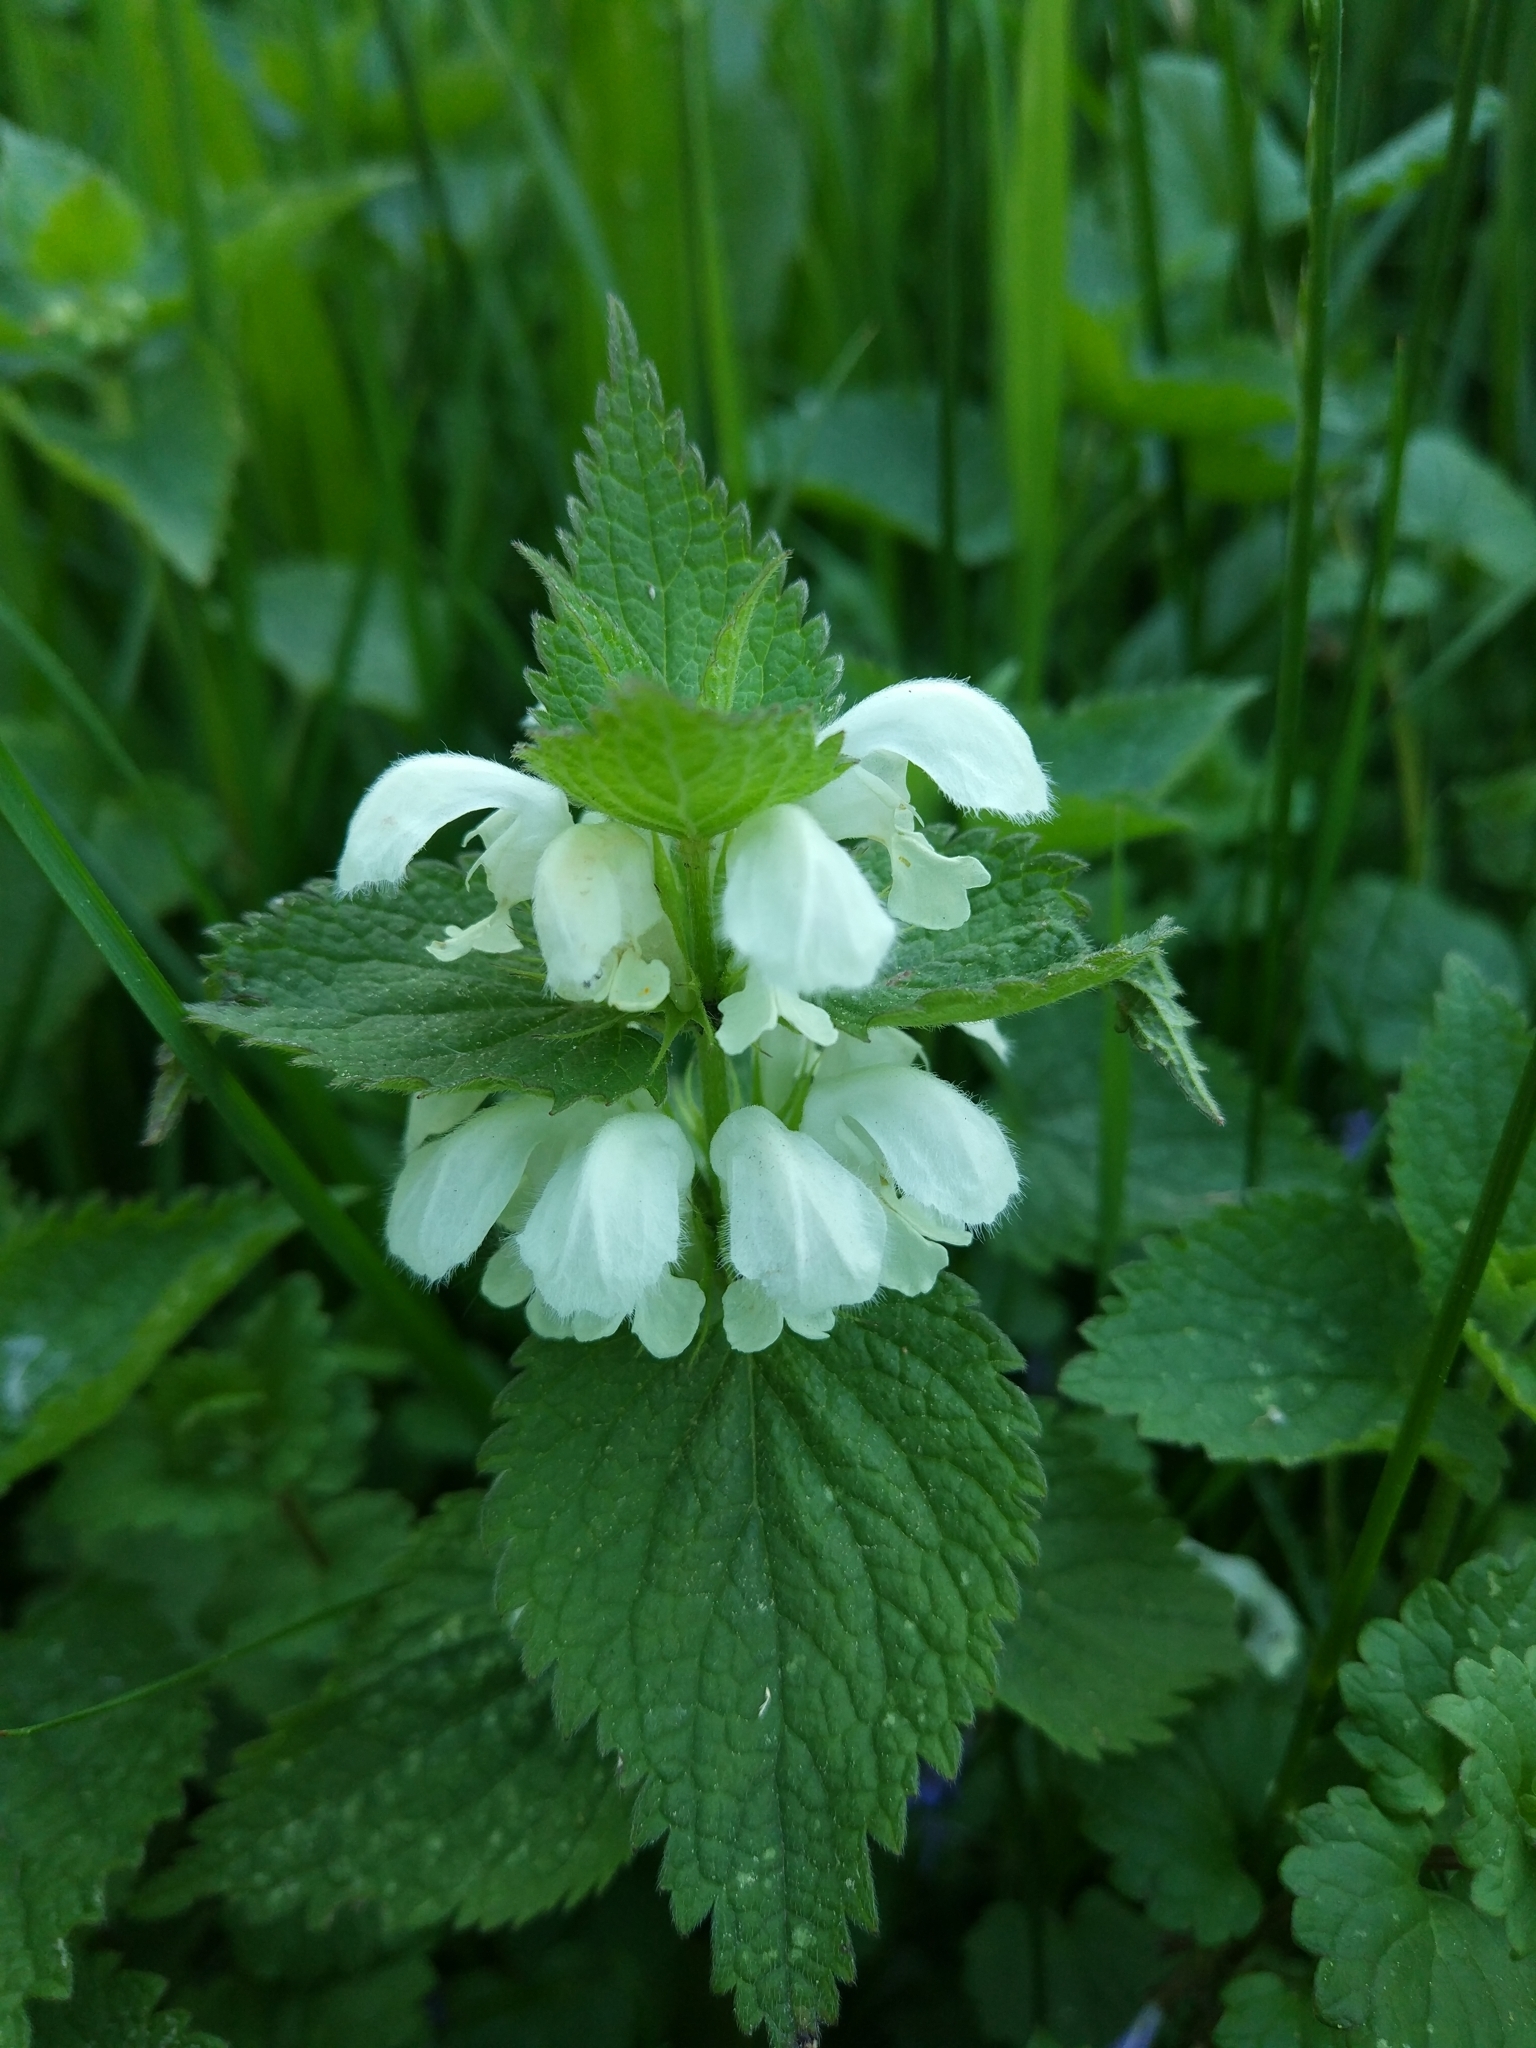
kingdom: Plantae
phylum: Tracheophyta
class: Magnoliopsida
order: Lamiales
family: Lamiaceae
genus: Lamium
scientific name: Lamium album
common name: White dead-nettle
